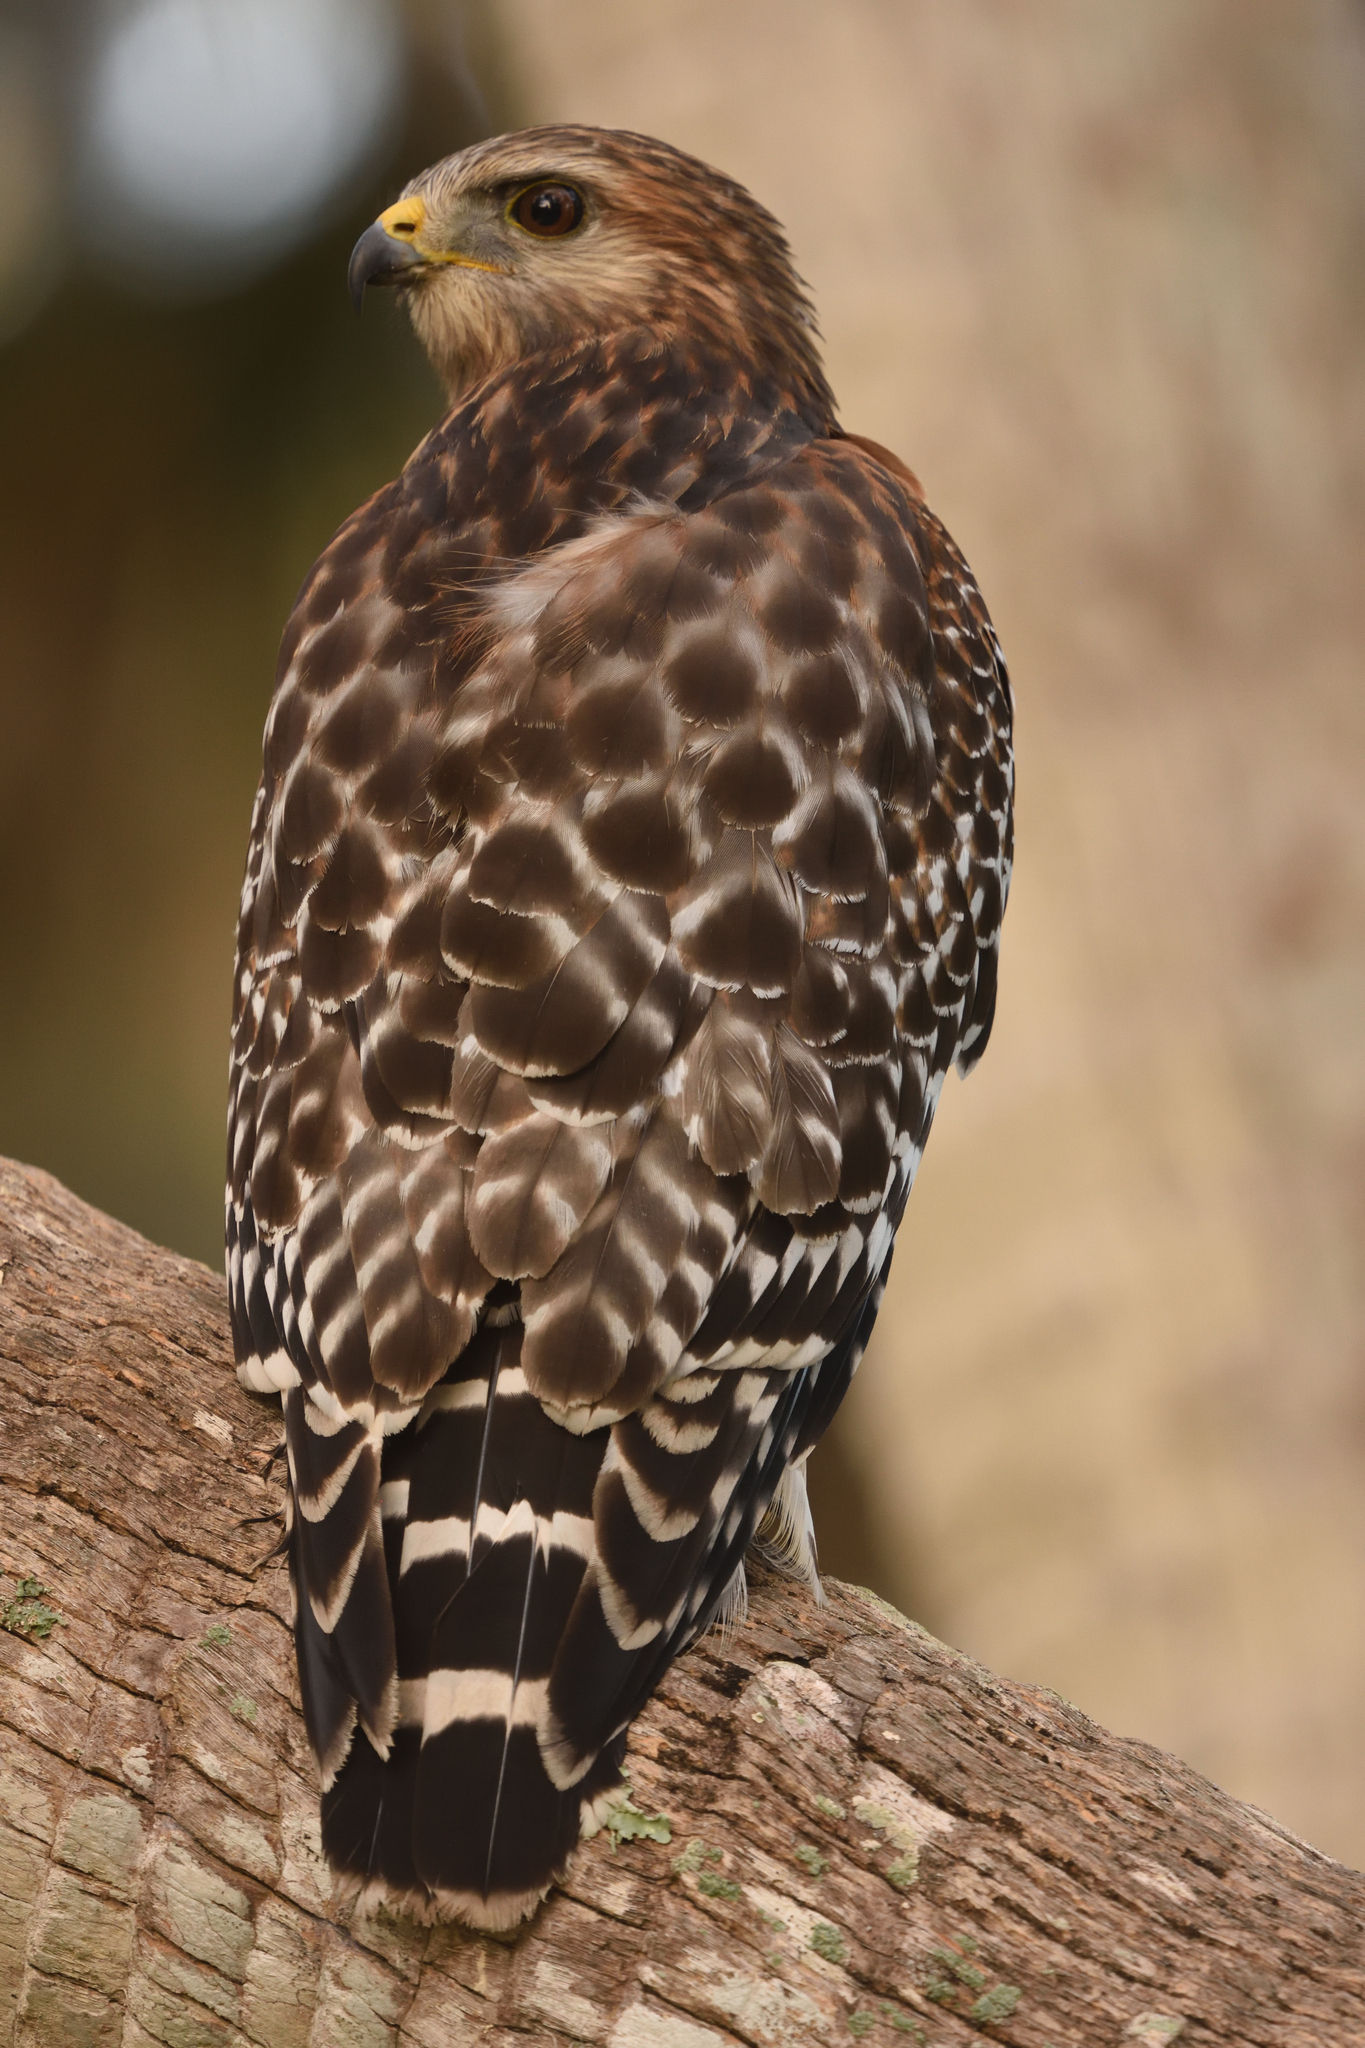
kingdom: Animalia
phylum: Chordata
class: Aves
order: Accipitriformes
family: Accipitridae
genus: Buteo
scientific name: Buteo lineatus
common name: Red-shouldered hawk
